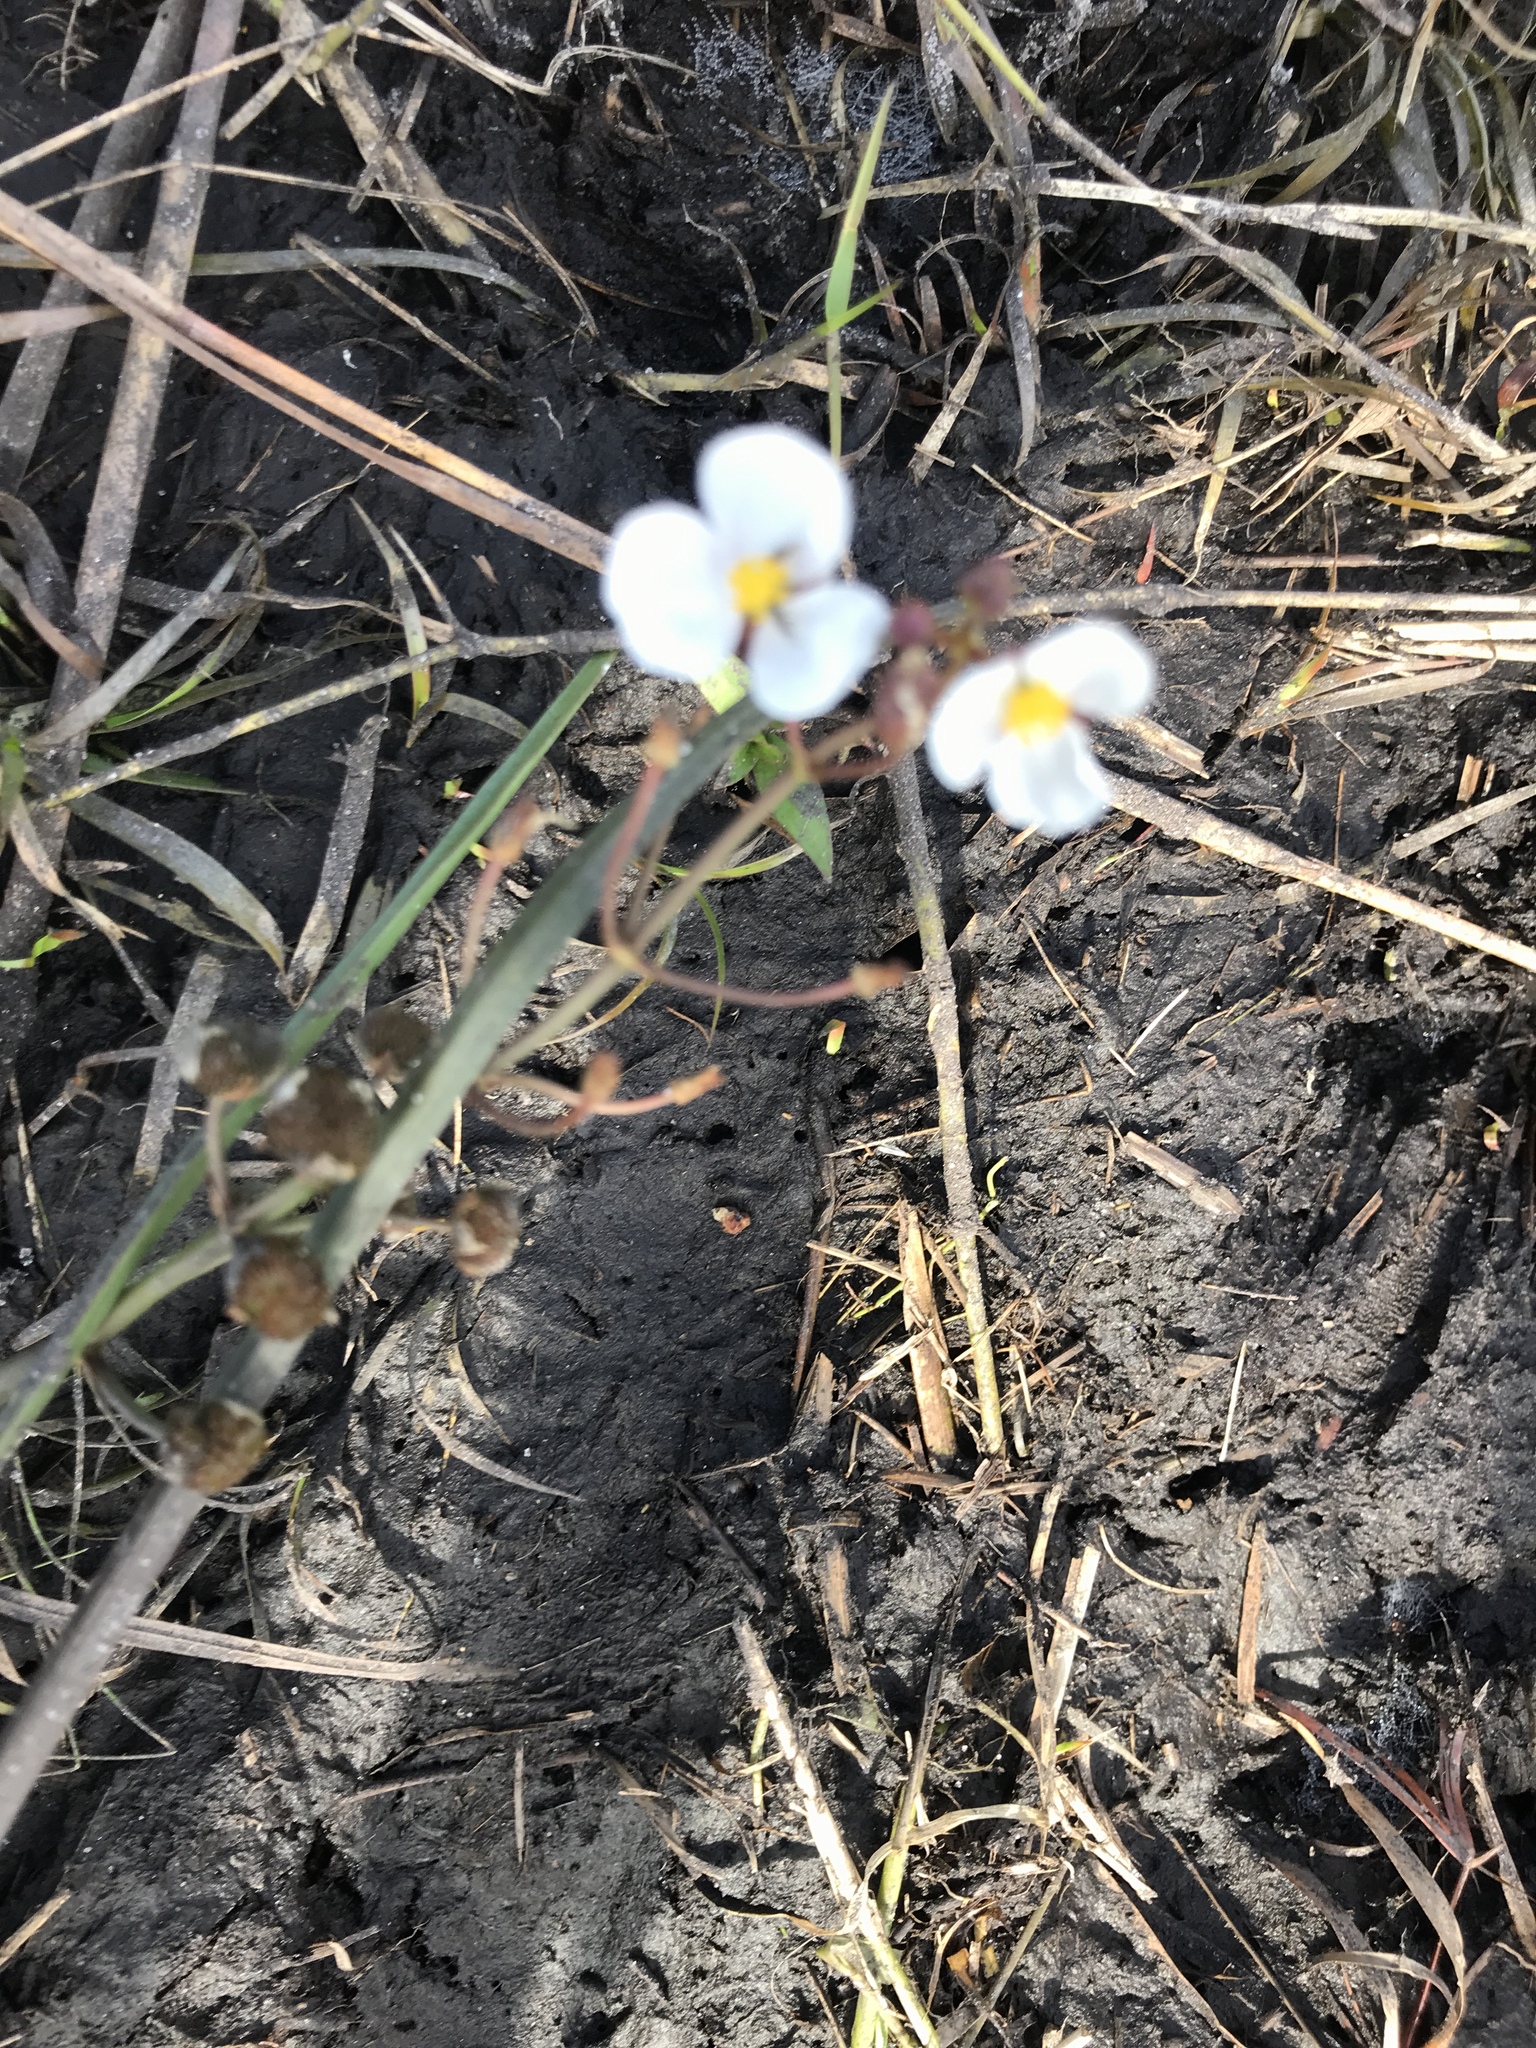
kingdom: Plantae
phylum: Tracheophyta
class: Liliopsida
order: Alismatales
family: Alismataceae
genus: Sagittaria
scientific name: Sagittaria lancifolia
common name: Lance-leaf arrowhead
